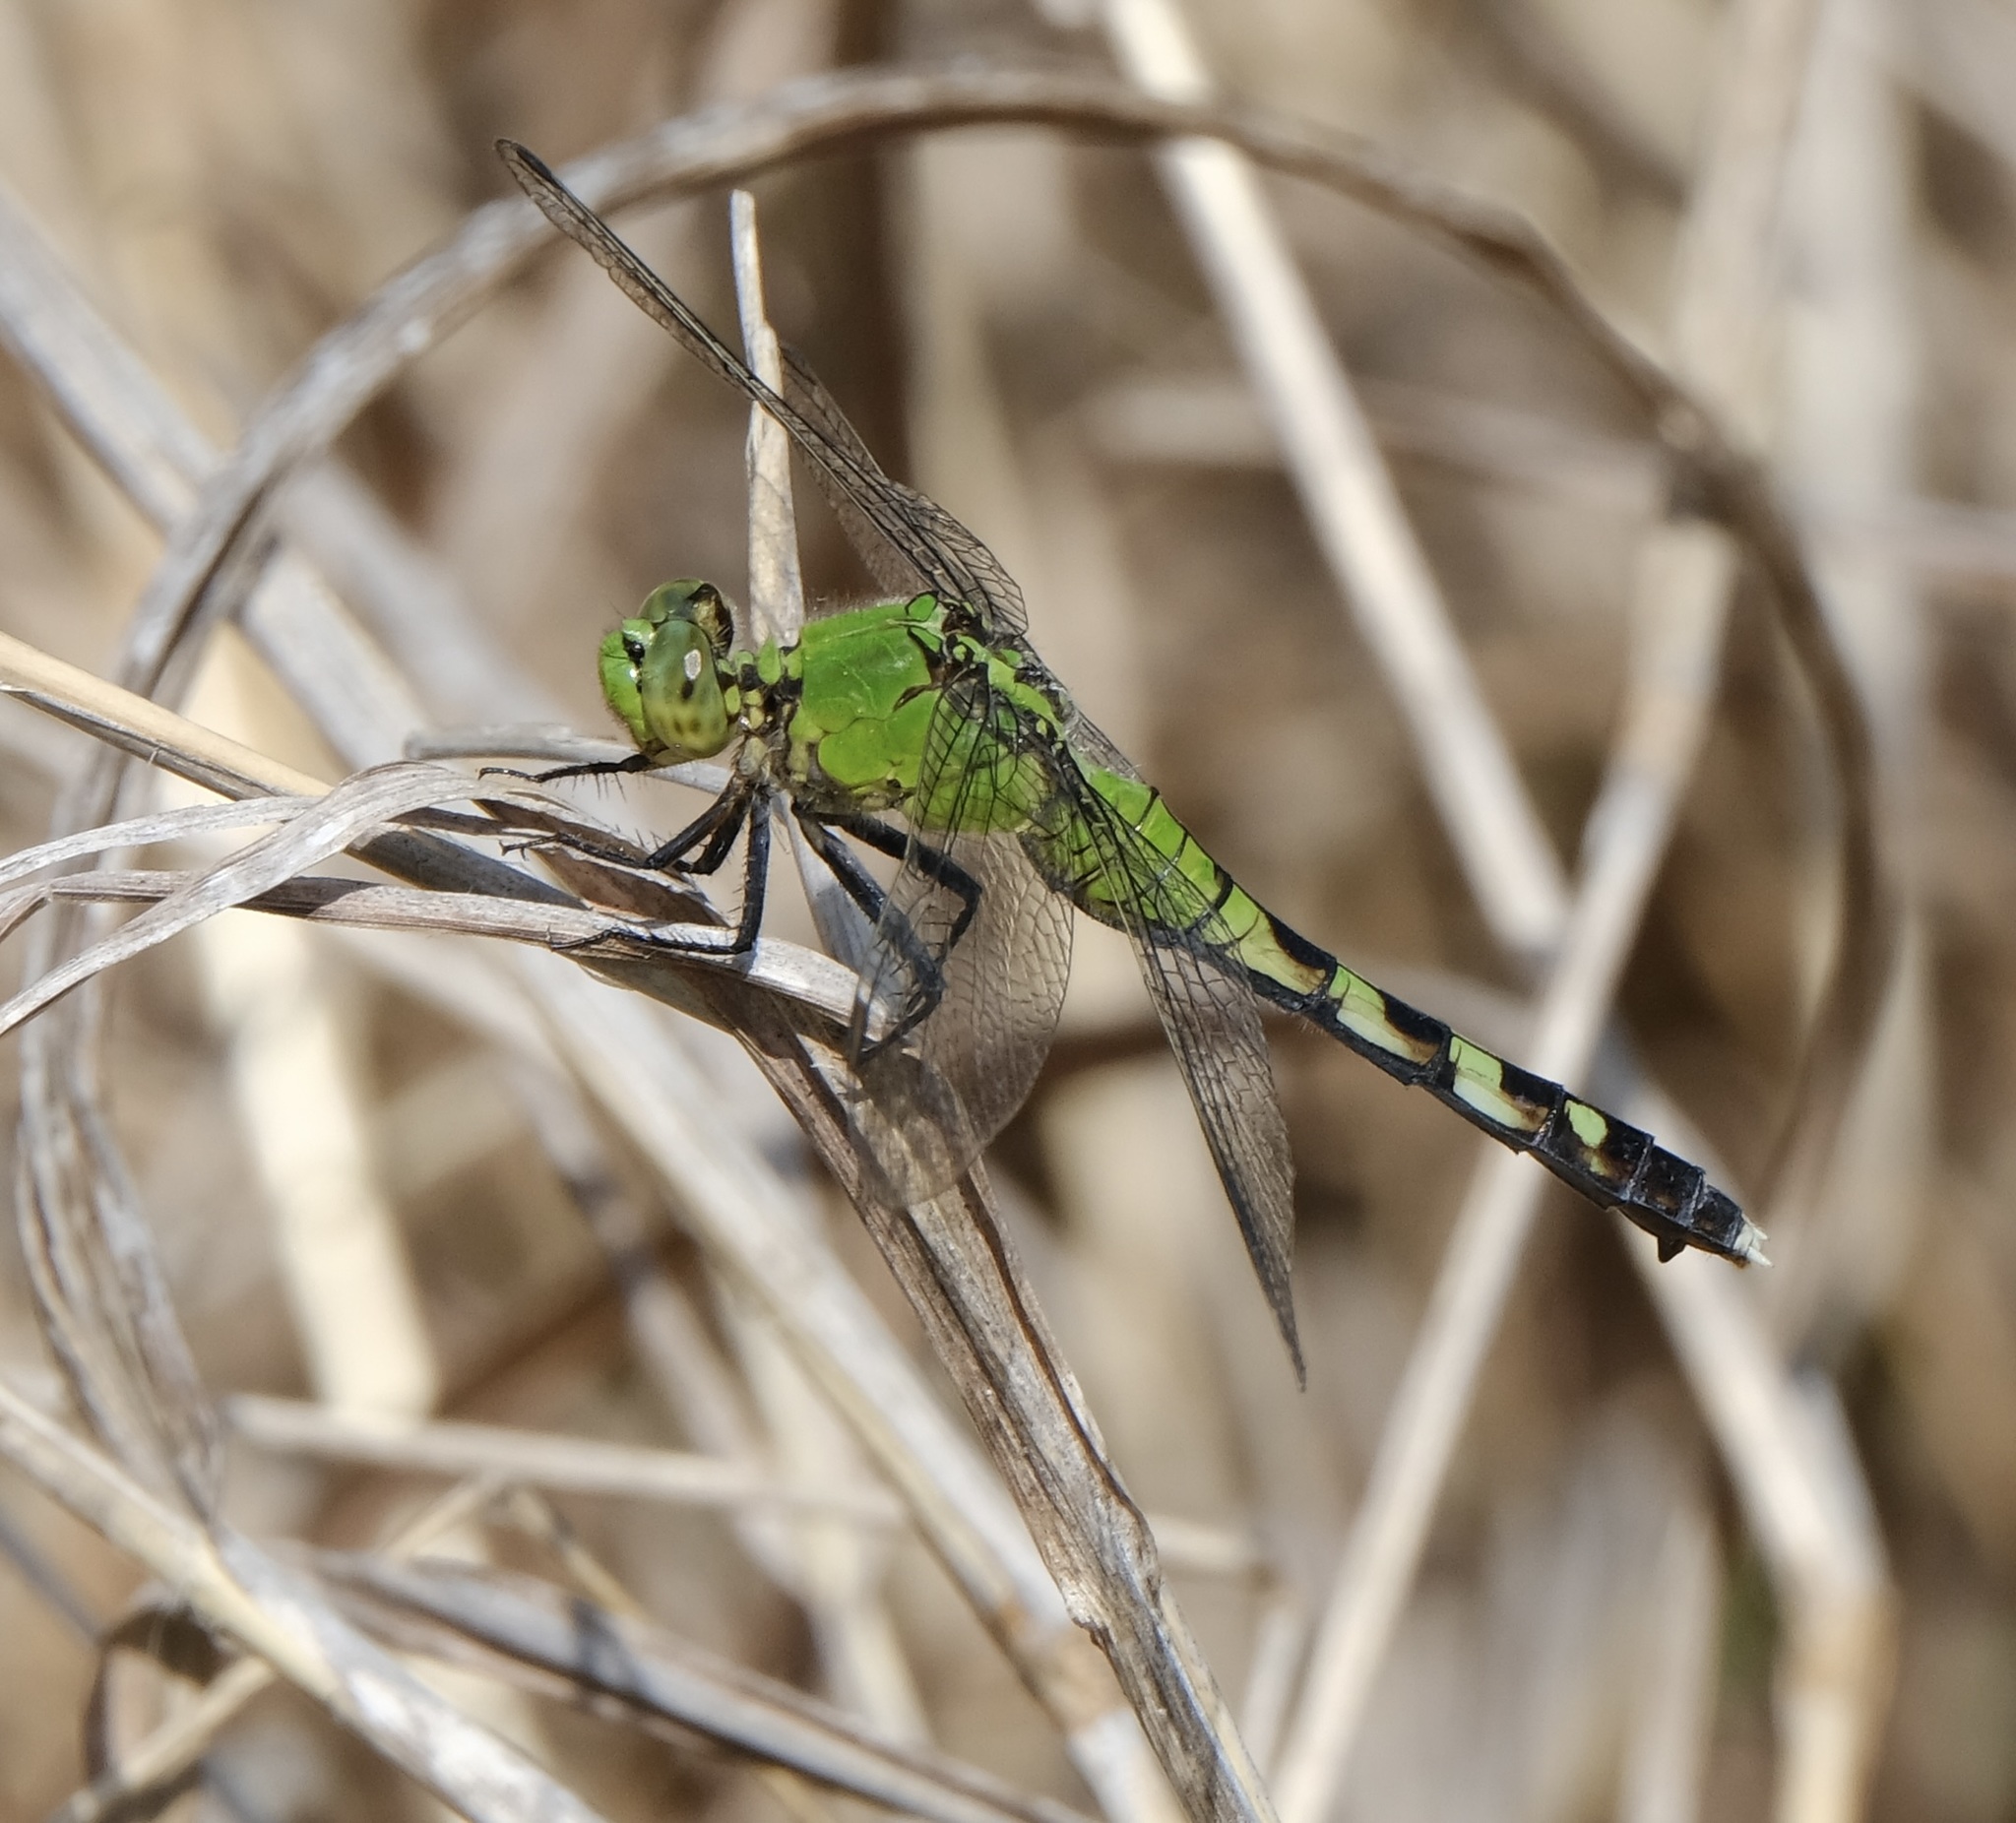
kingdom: Animalia
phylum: Arthropoda
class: Insecta
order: Odonata
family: Libellulidae
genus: Erythemis
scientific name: Erythemis simplicicollis
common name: Eastern pondhawk
